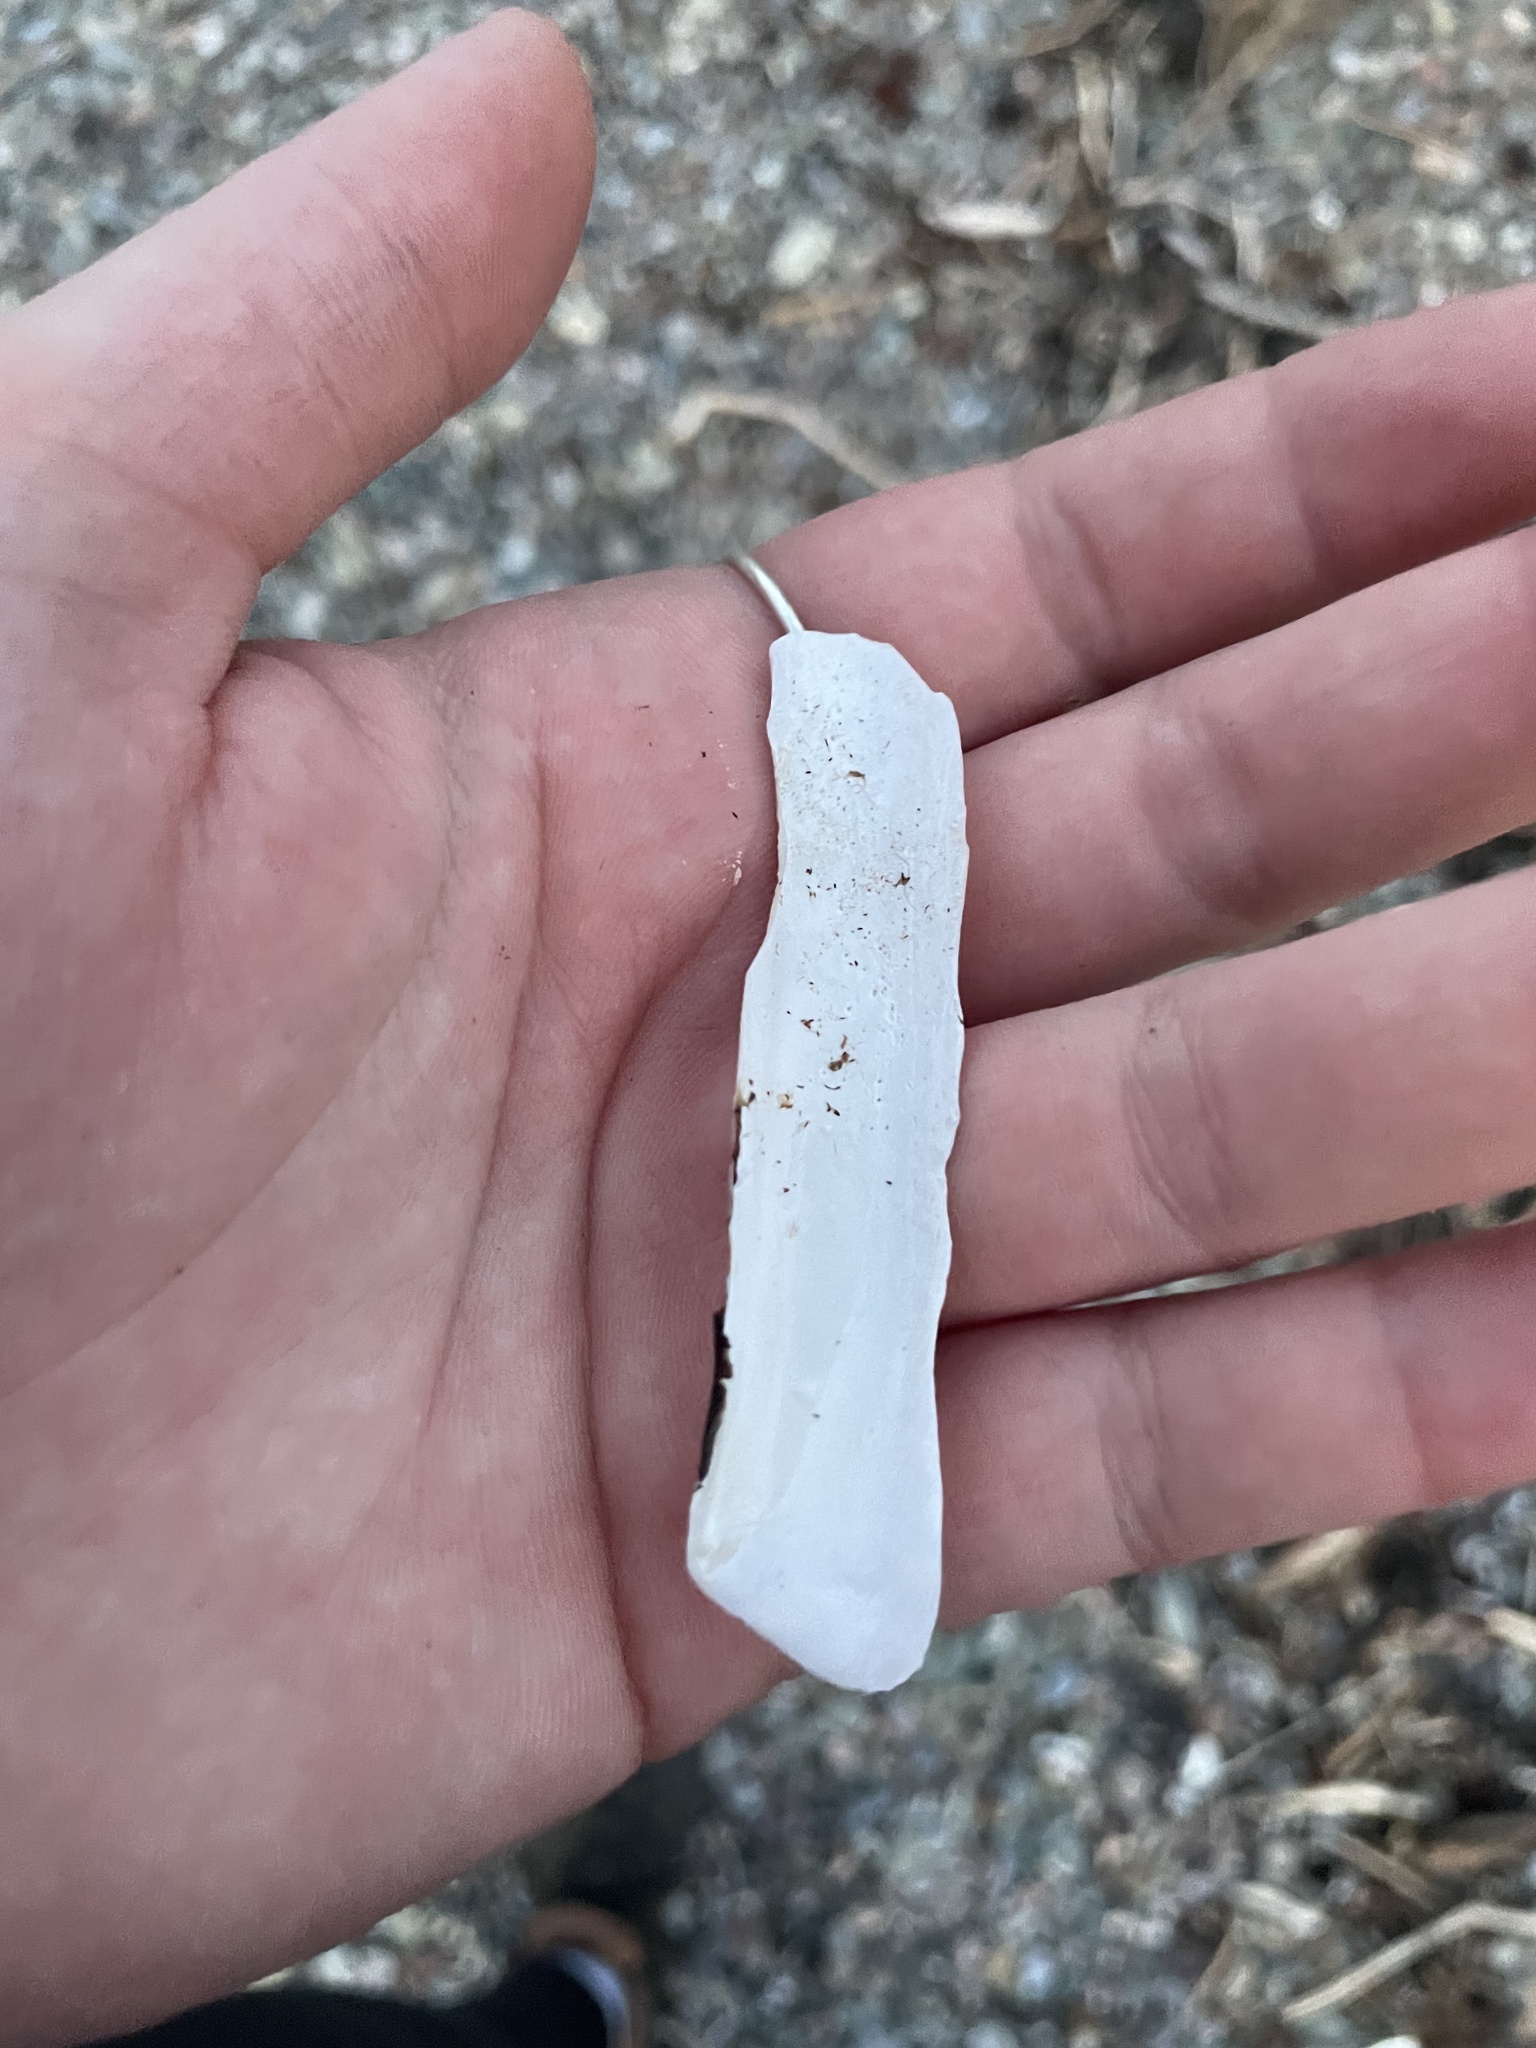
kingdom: Animalia
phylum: Mollusca
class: Bivalvia
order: Adapedonta
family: Pharidae
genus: Ensis
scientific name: Ensis leei
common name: American jack knife clam
